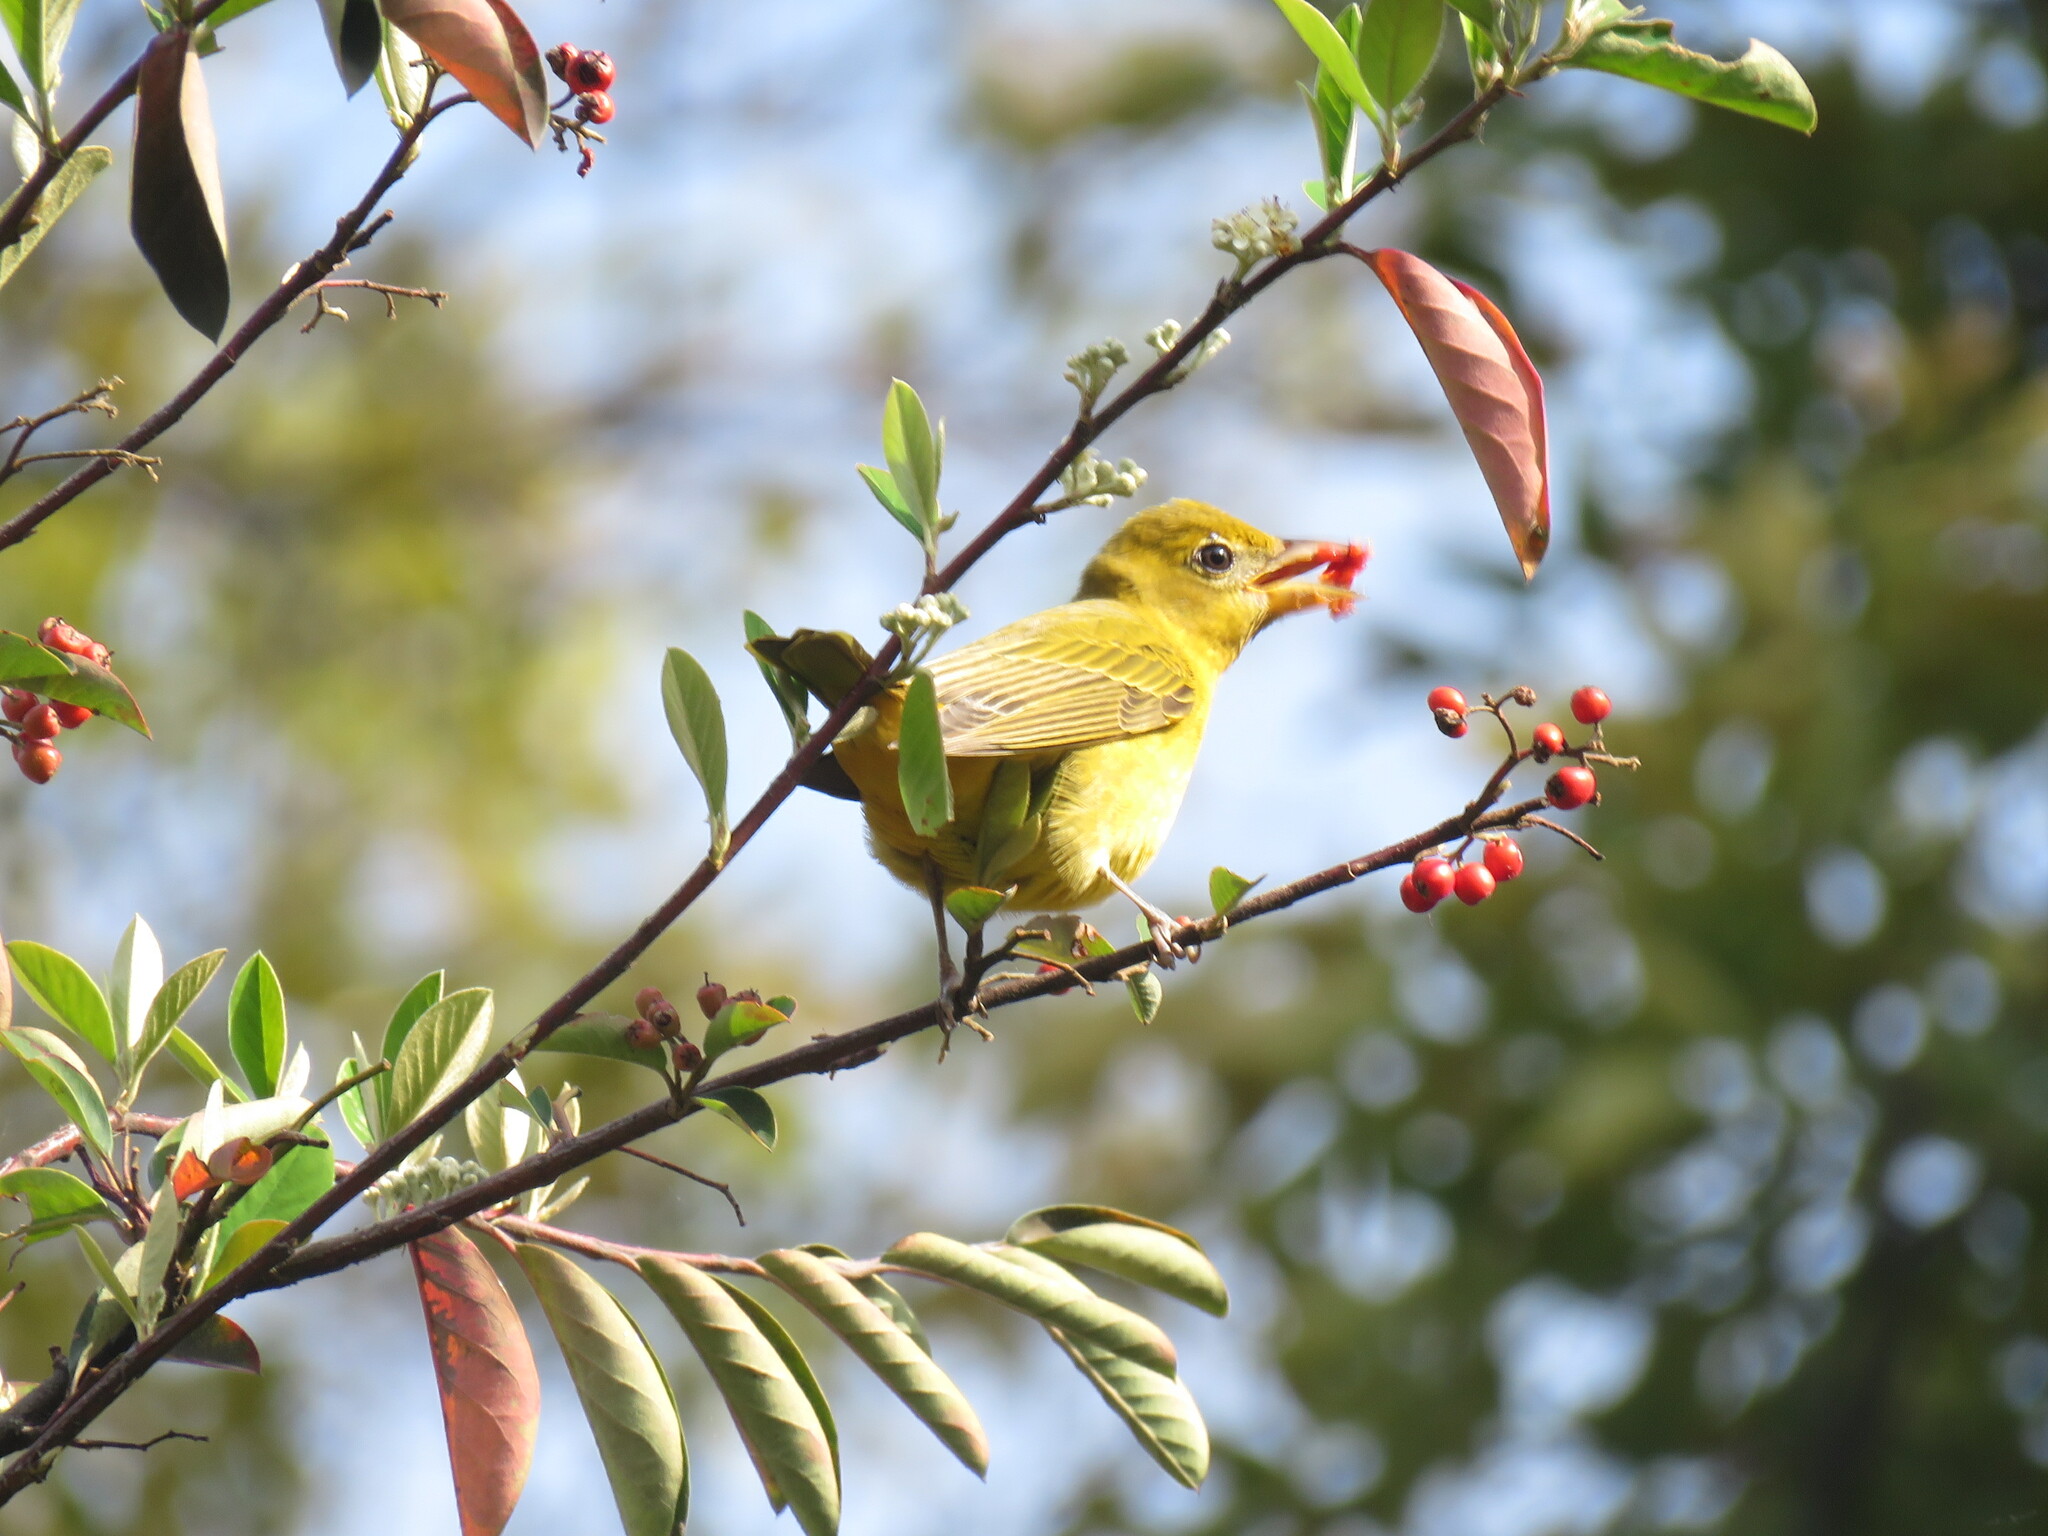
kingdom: Animalia
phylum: Chordata
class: Aves
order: Passeriformes
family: Cardinalidae
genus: Piranga
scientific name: Piranga rubra
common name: Summer tanager
